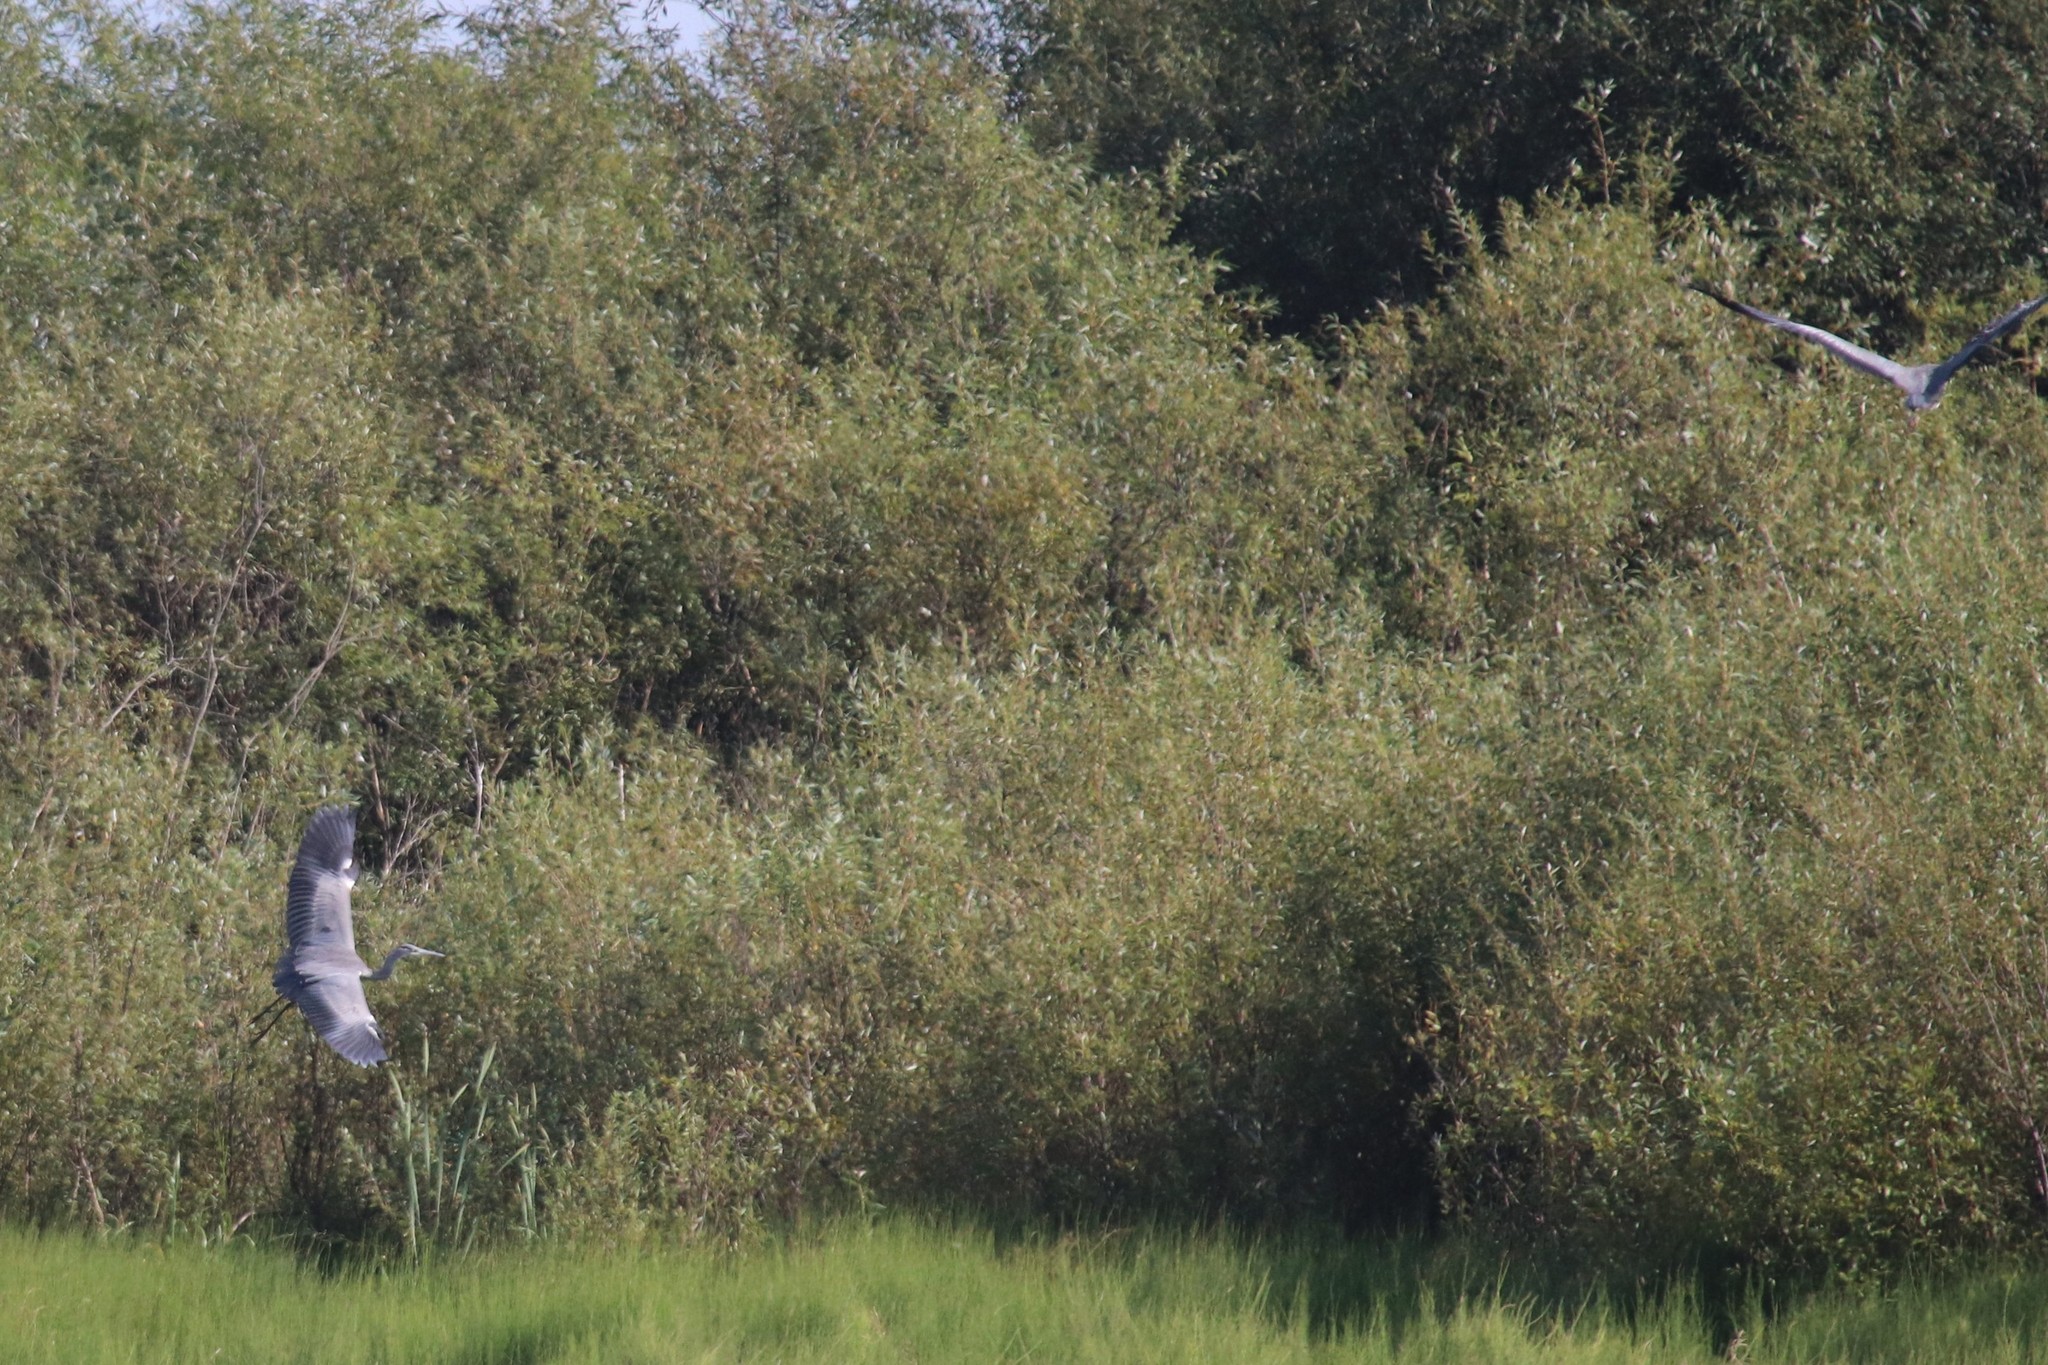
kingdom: Animalia
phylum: Chordata
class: Aves
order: Pelecaniformes
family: Ardeidae
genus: Ardea
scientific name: Ardea cinerea
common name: Grey heron
